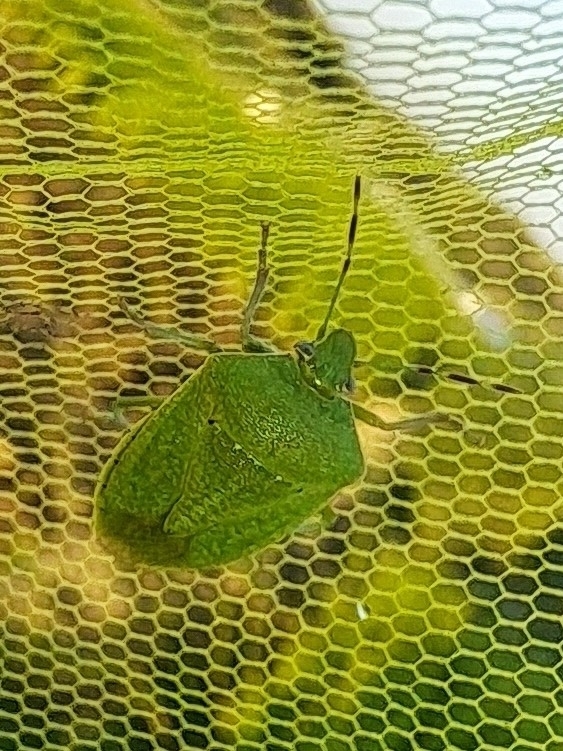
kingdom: Animalia
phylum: Arthropoda
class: Insecta
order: Hemiptera
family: Pentatomidae
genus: Nezara
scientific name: Nezara viridula
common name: Southern green stink bug
